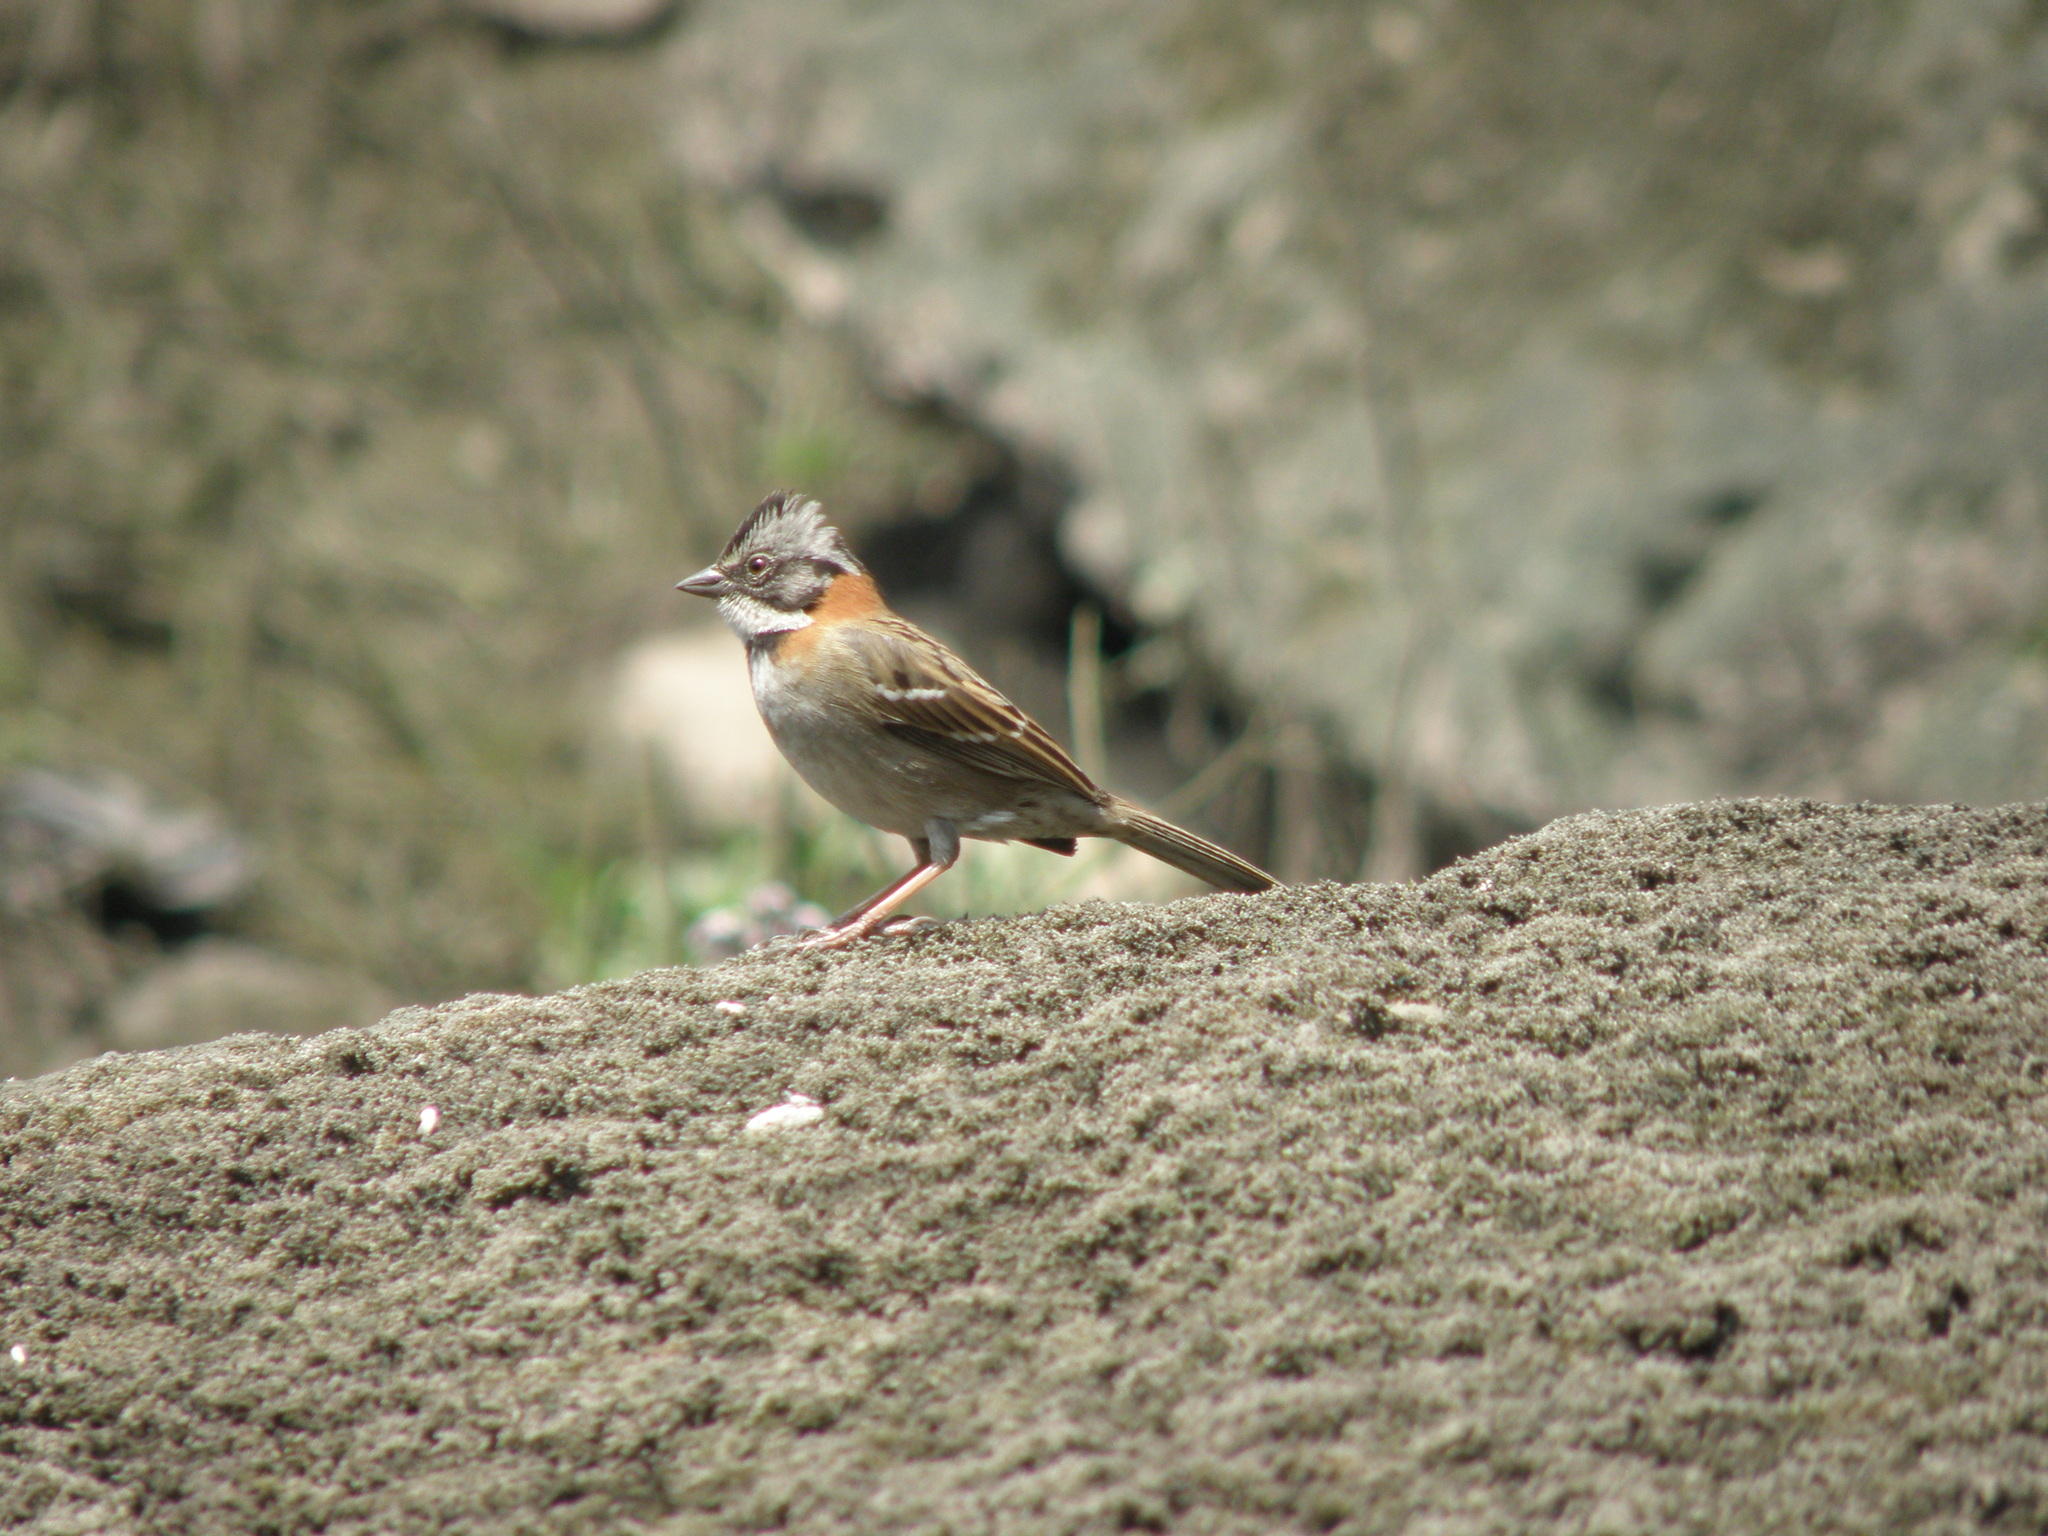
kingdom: Animalia
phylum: Chordata
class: Aves
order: Passeriformes
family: Passerellidae
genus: Zonotrichia
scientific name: Zonotrichia capensis
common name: Rufous-collared sparrow
